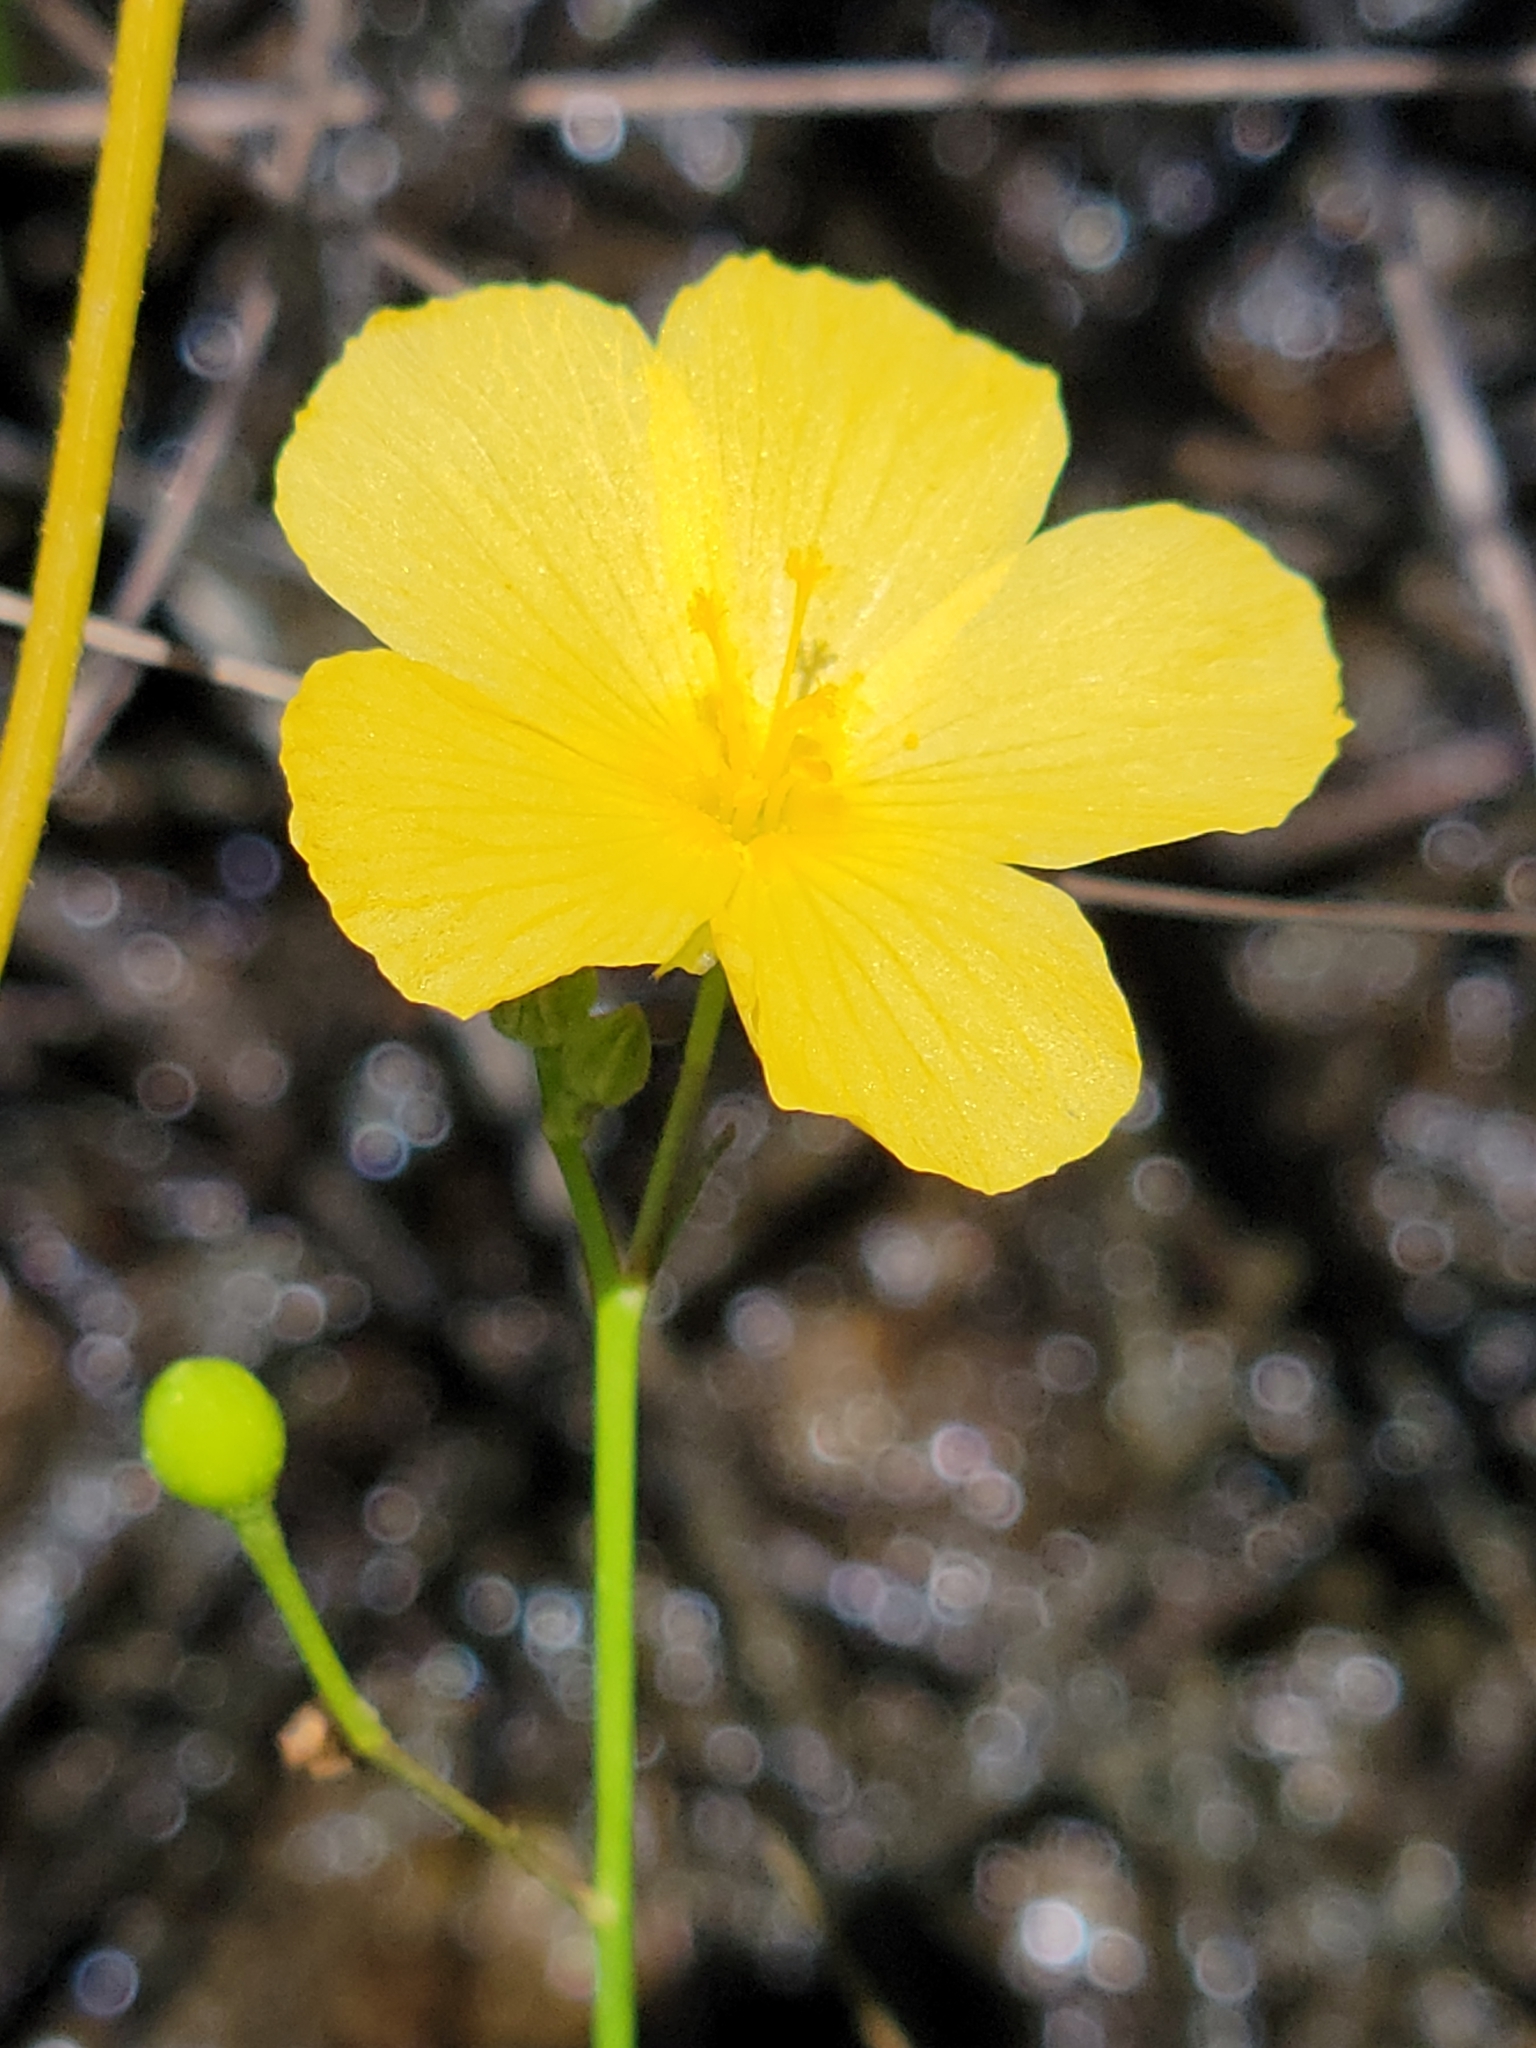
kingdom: Plantae
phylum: Tracheophyta
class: Magnoliopsida
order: Malpighiales
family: Turneraceae
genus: Piriqueta
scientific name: Piriqueta cistoides
